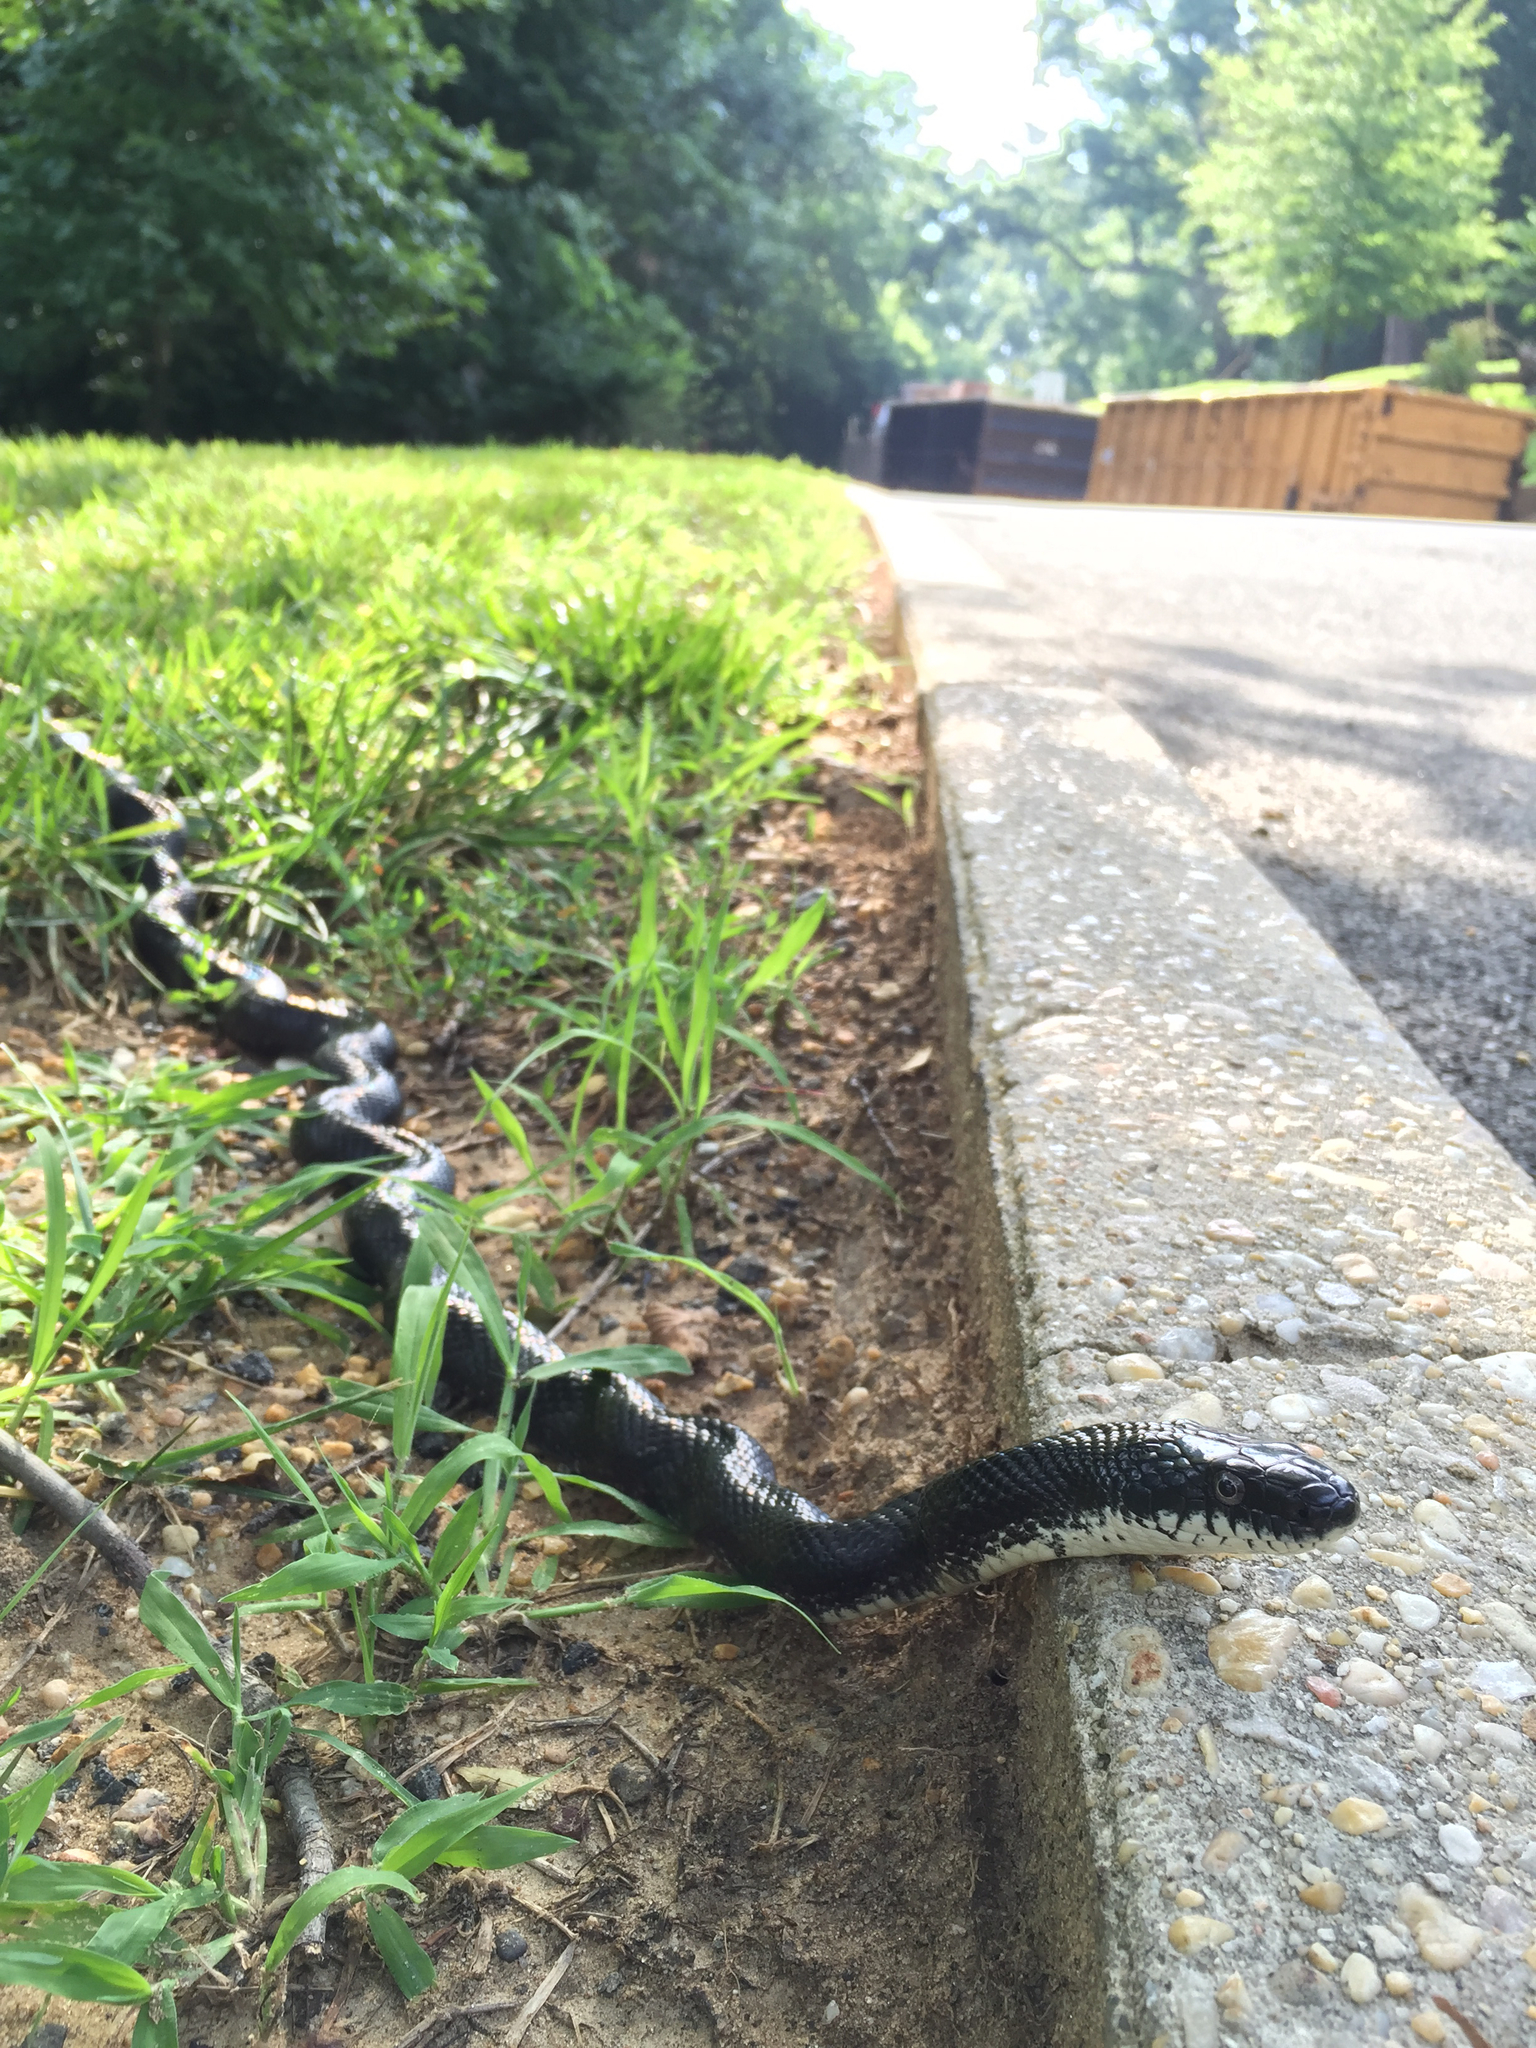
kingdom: Animalia
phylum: Chordata
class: Squamata
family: Colubridae
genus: Pantherophis
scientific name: Pantherophis alleghaniensis
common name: Eastern rat snake
